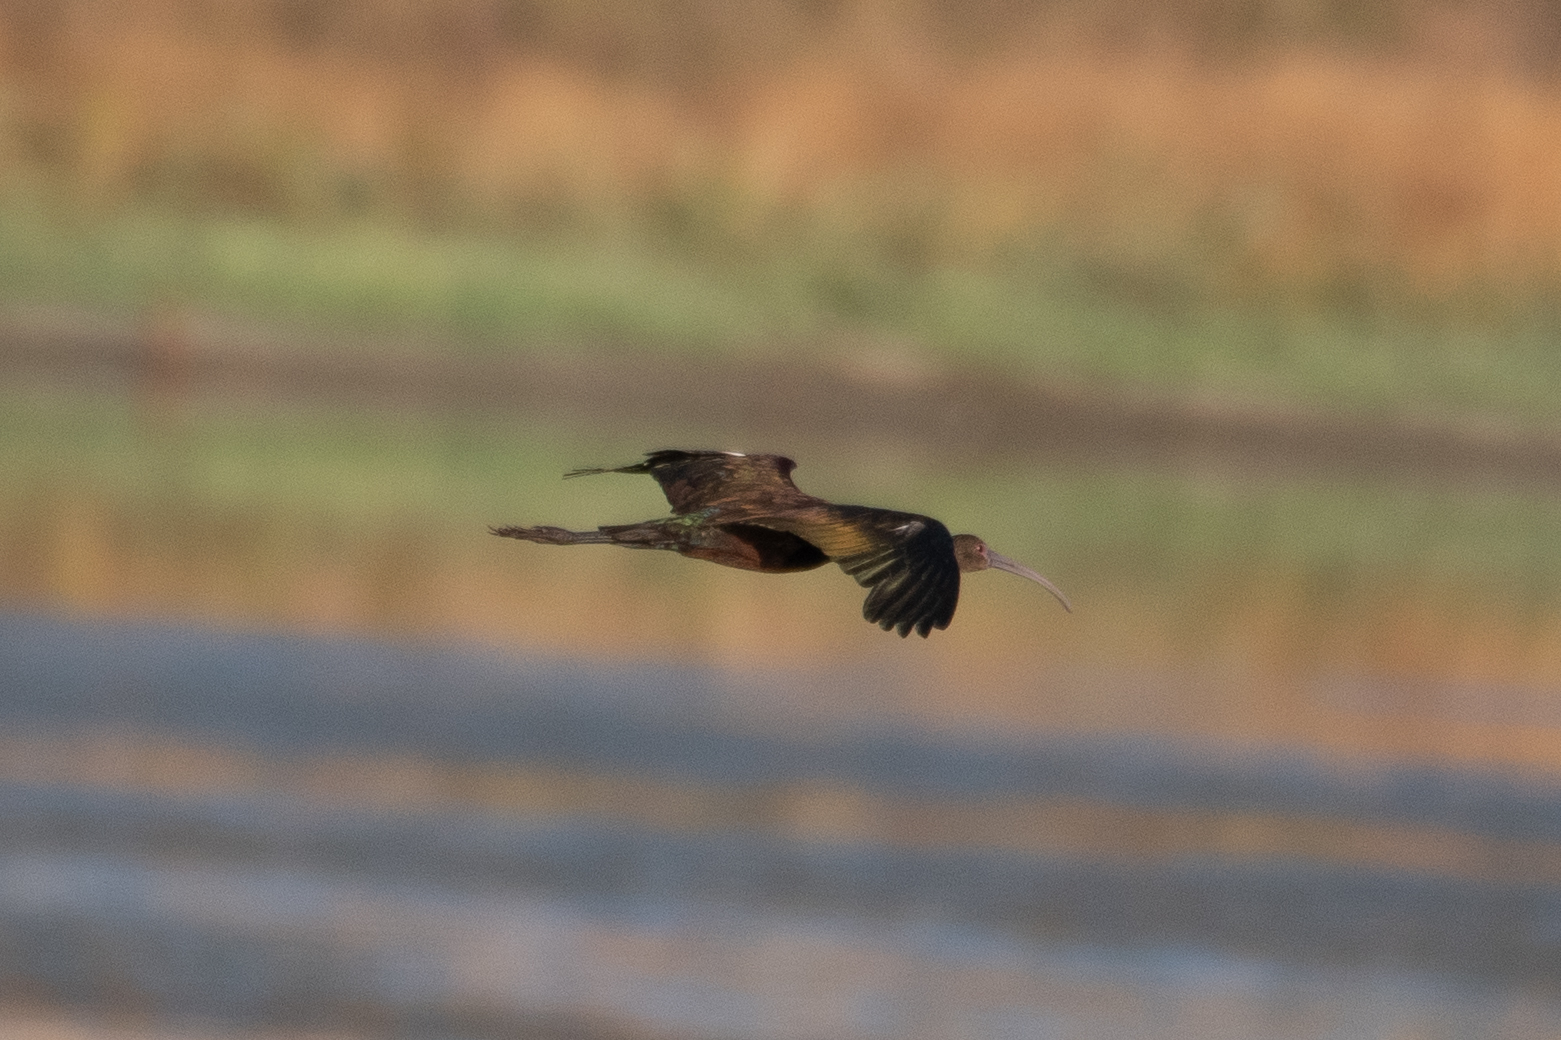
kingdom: Animalia
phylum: Chordata
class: Aves
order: Pelecaniformes
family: Threskiornithidae
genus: Plegadis
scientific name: Plegadis chihi
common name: White-faced ibis
